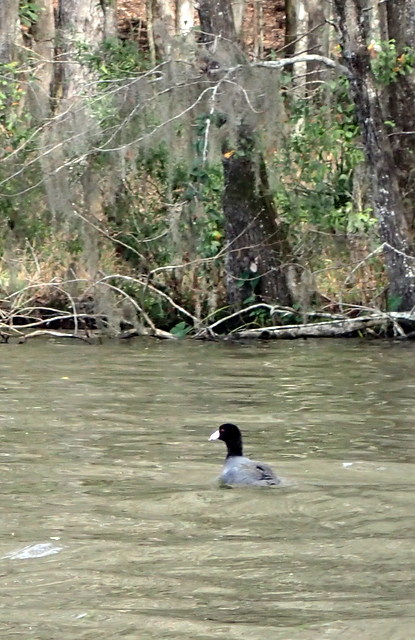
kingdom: Animalia
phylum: Chordata
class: Aves
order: Gruiformes
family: Rallidae
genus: Fulica
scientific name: Fulica americana
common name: American coot
